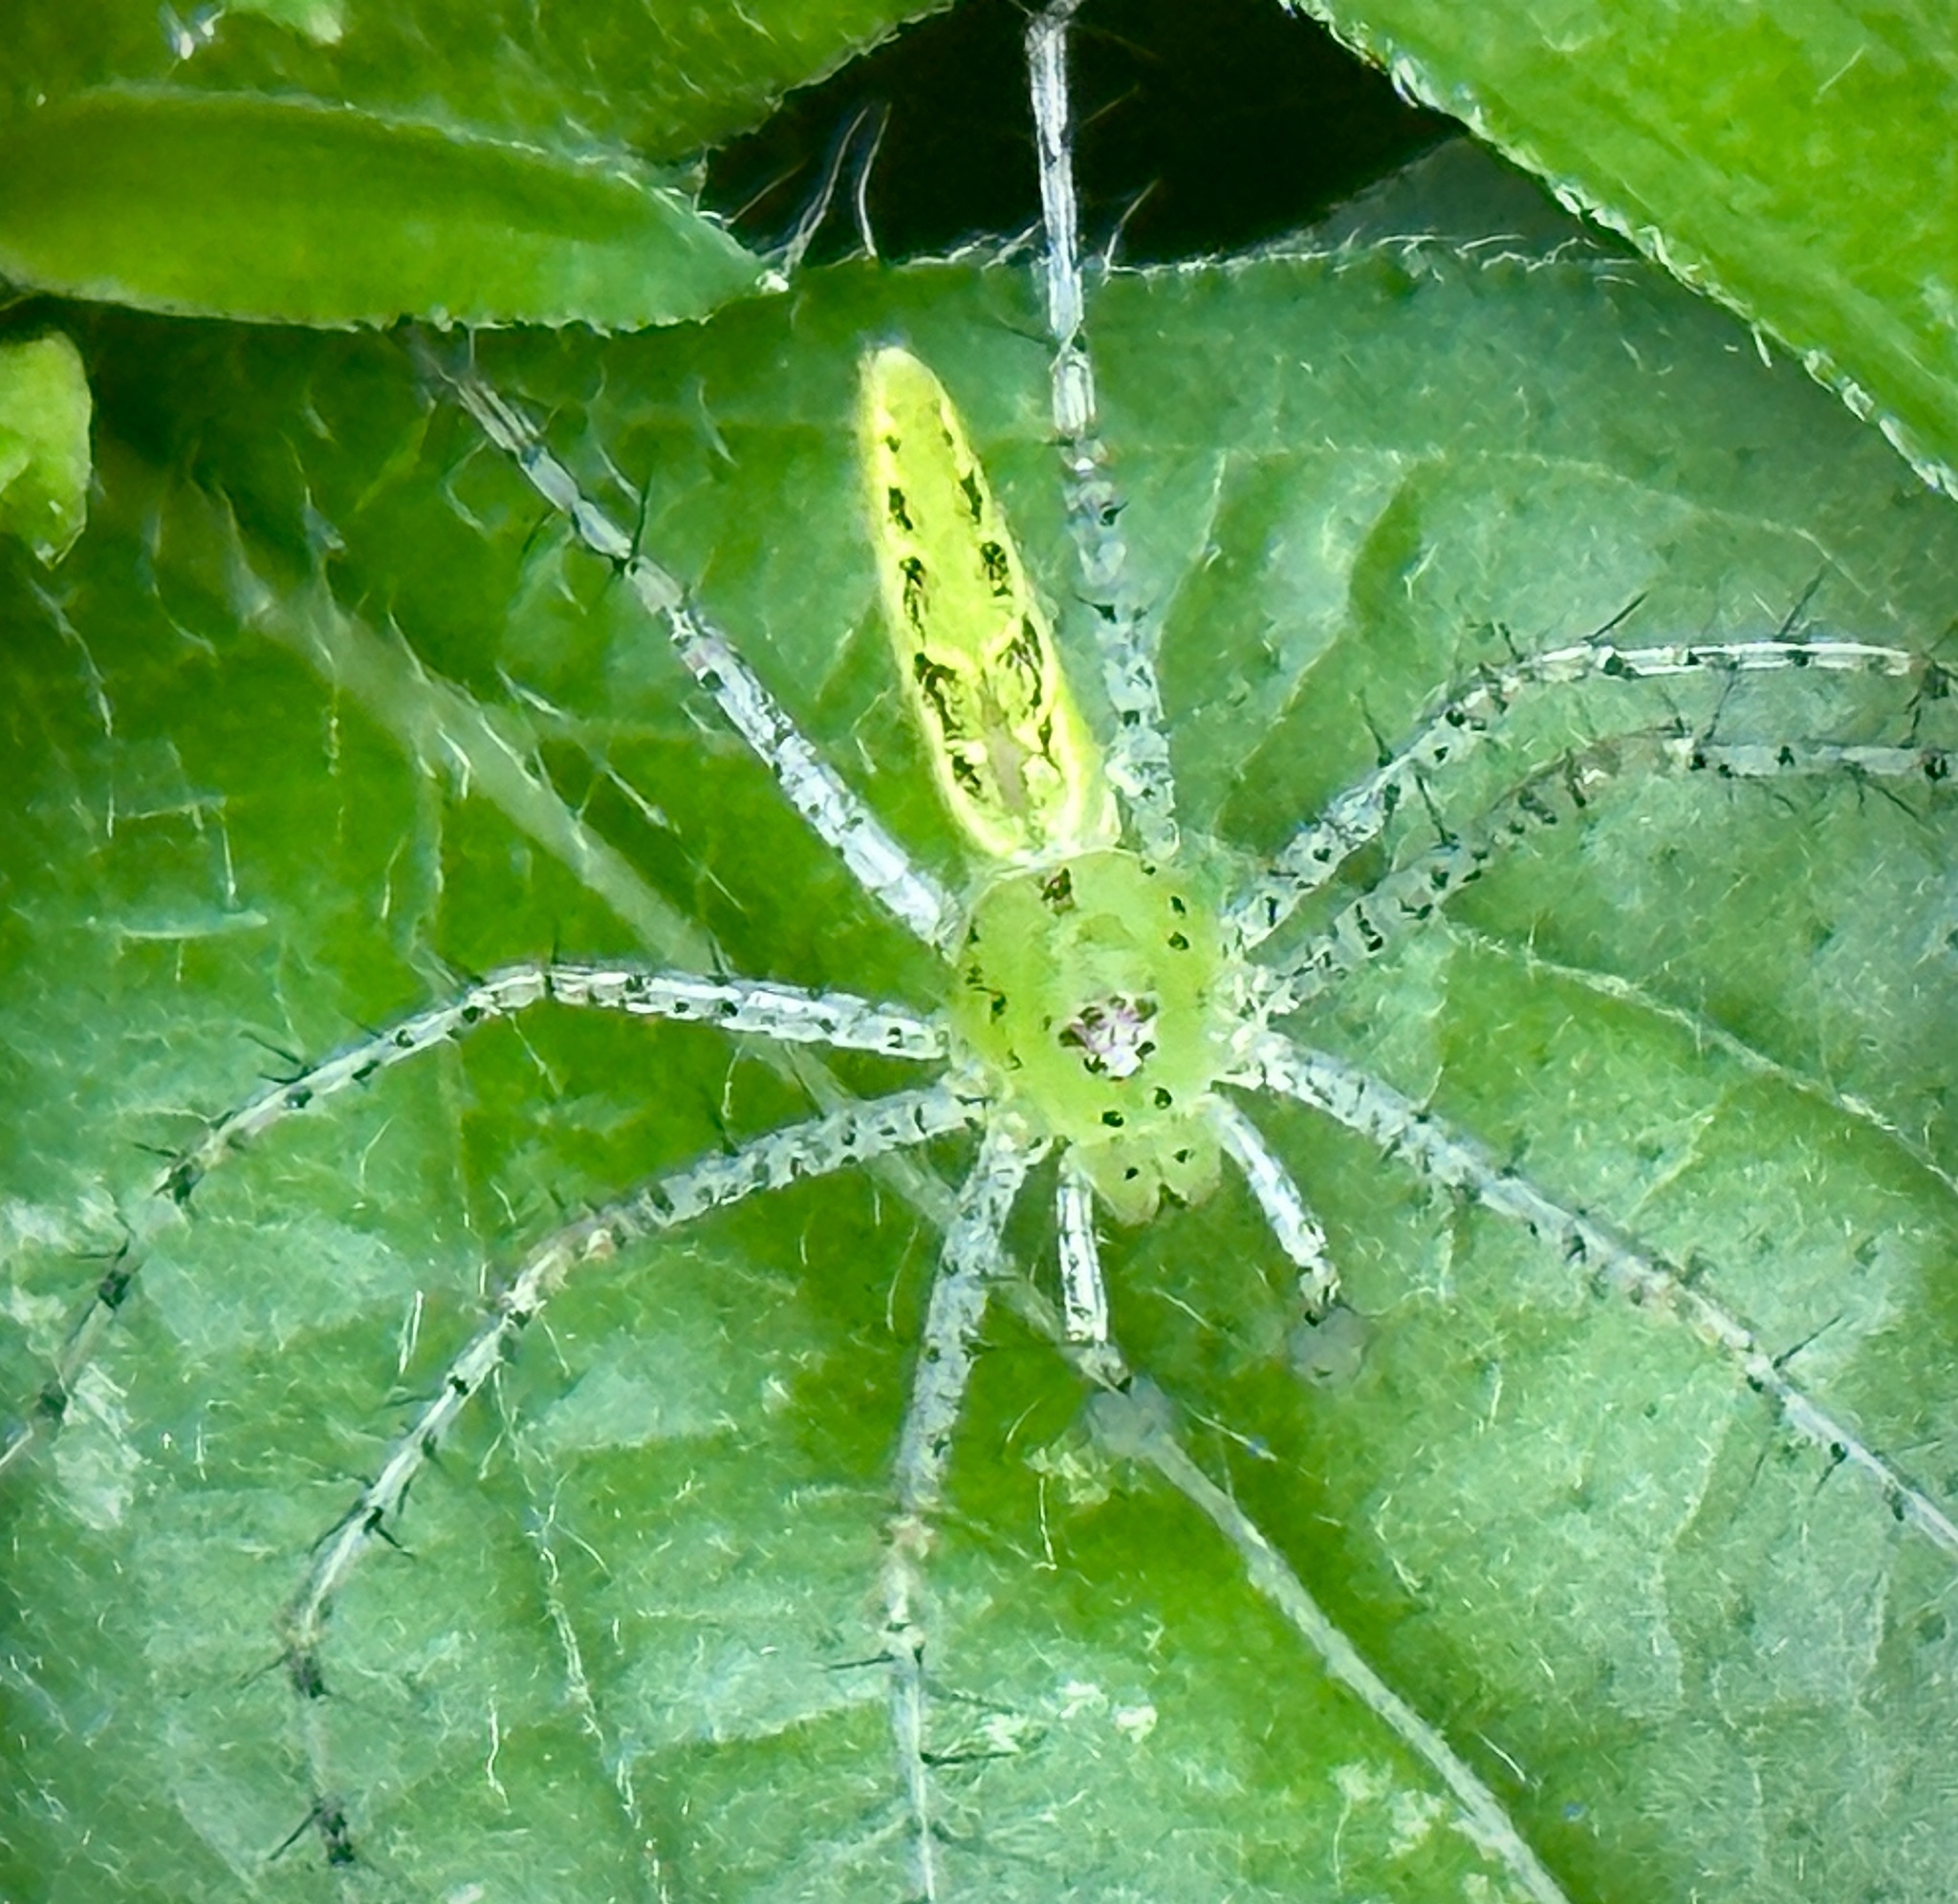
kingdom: Animalia
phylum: Arthropoda
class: Arachnida
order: Araneae
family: Oxyopidae
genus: Peucetia
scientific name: Peucetia viridans
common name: Lynx spiders
